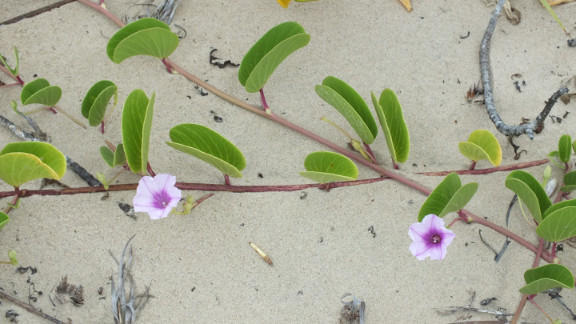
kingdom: Plantae
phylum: Tracheophyta
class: Magnoliopsida
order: Solanales
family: Convolvulaceae
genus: Ipomoea
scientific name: Ipomoea pes-caprae
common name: Beach morning glory
